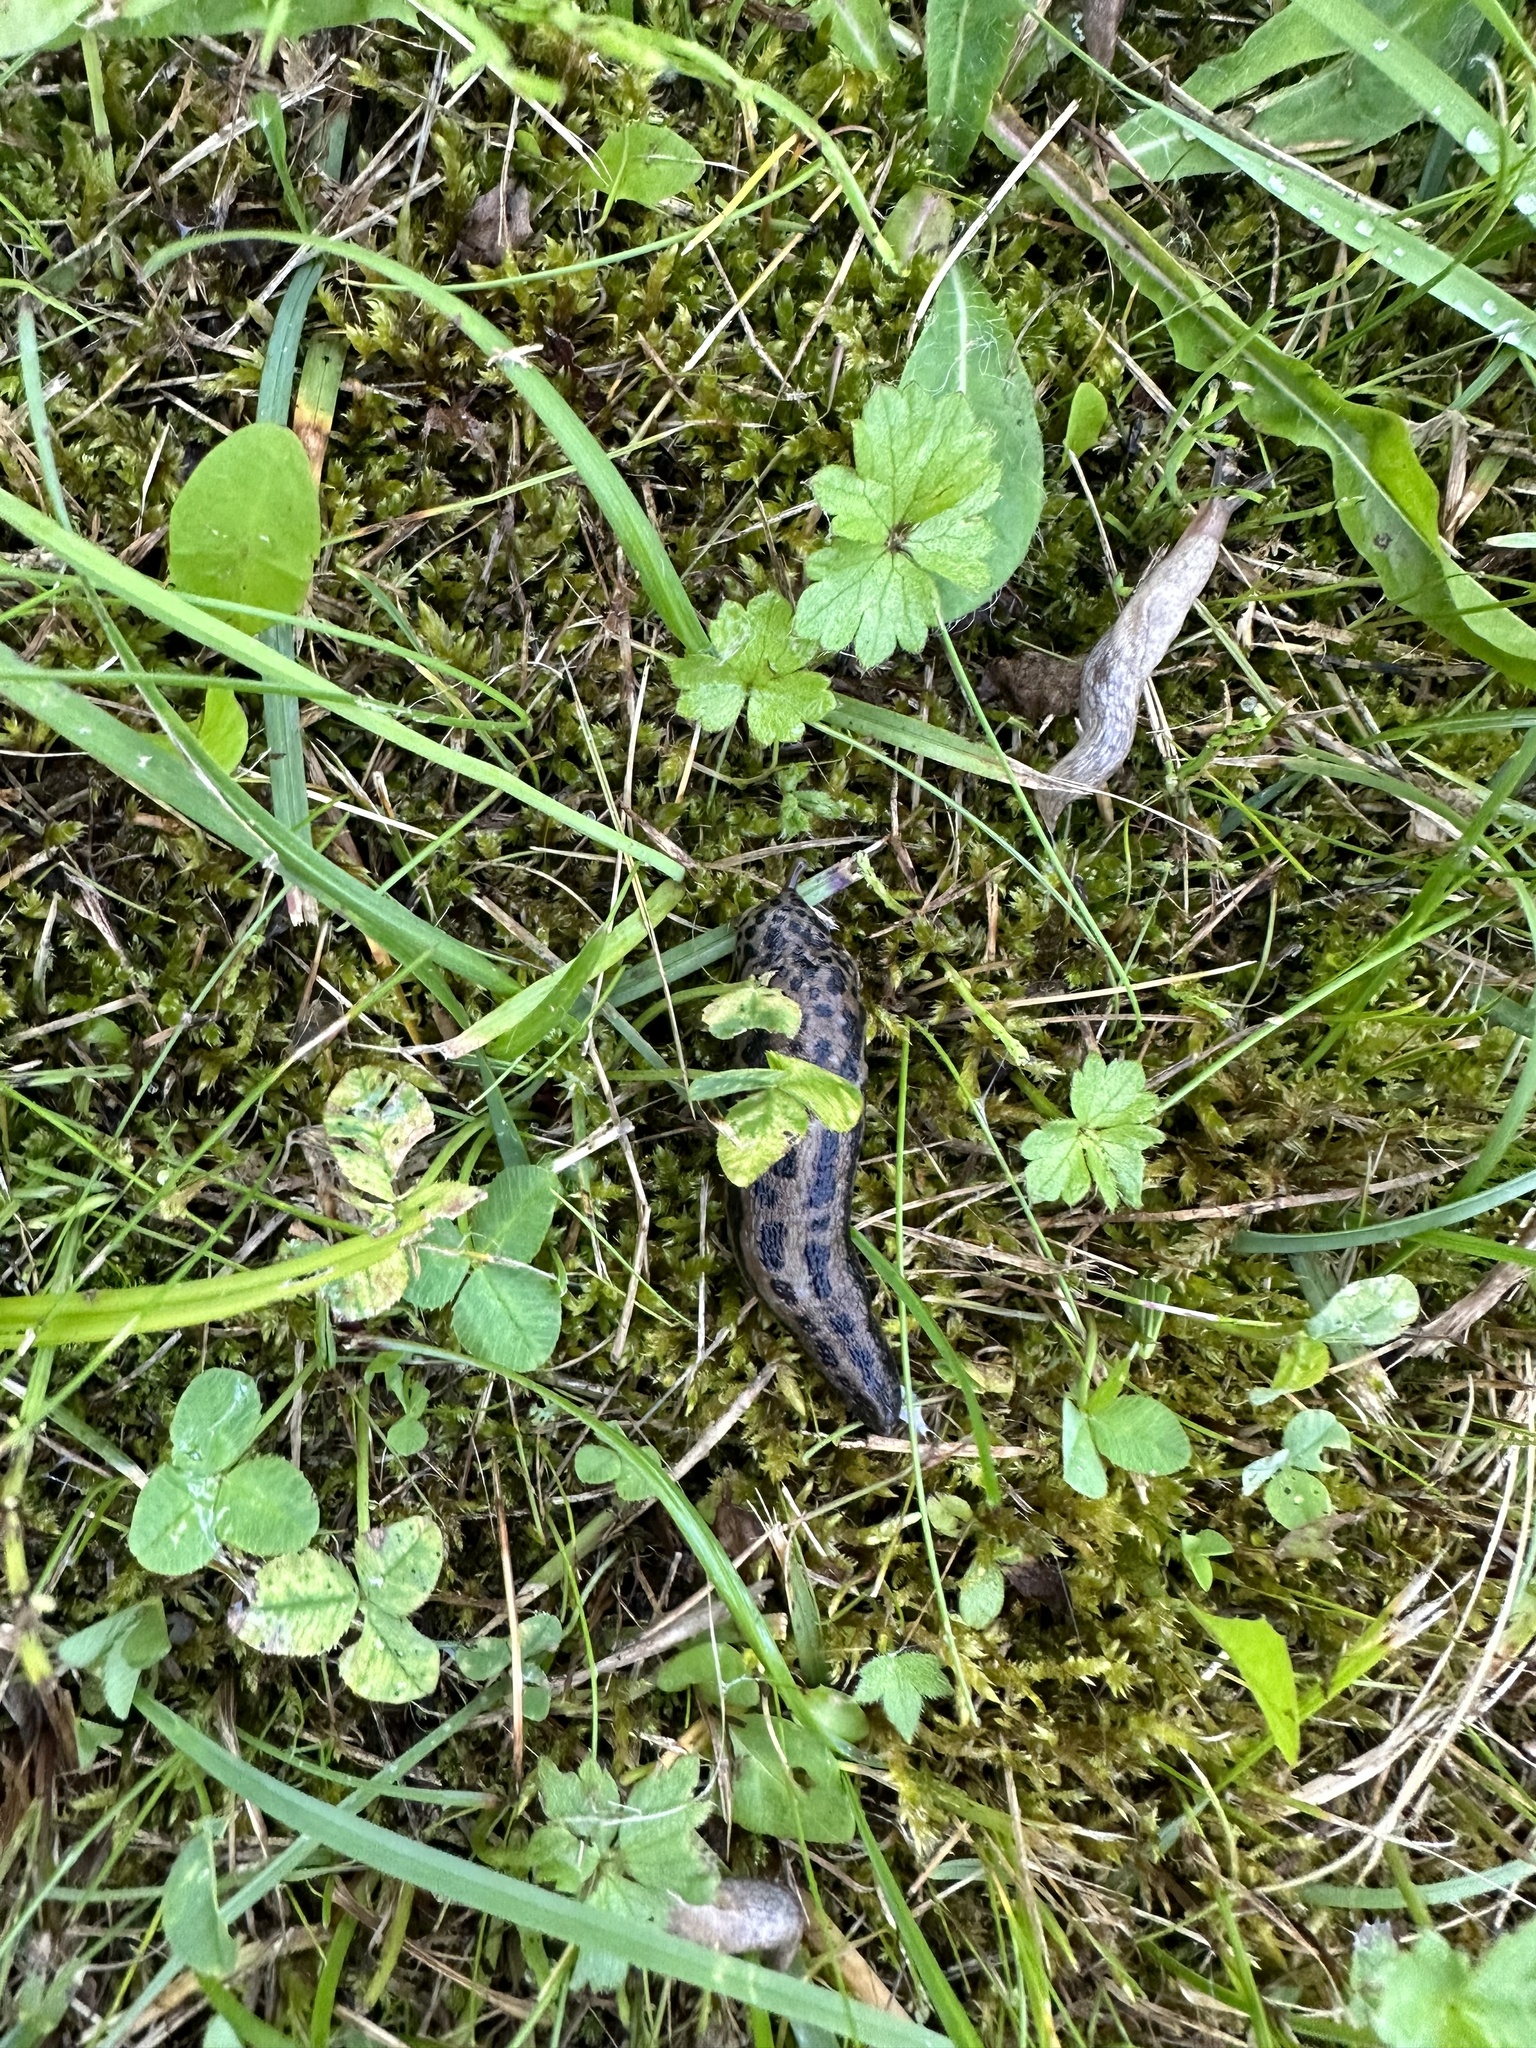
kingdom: Animalia
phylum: Mollusca
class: Gastropoda
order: Stylommatophora
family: Limacidae
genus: Limax
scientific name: Limax maximus
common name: Great grey slug
